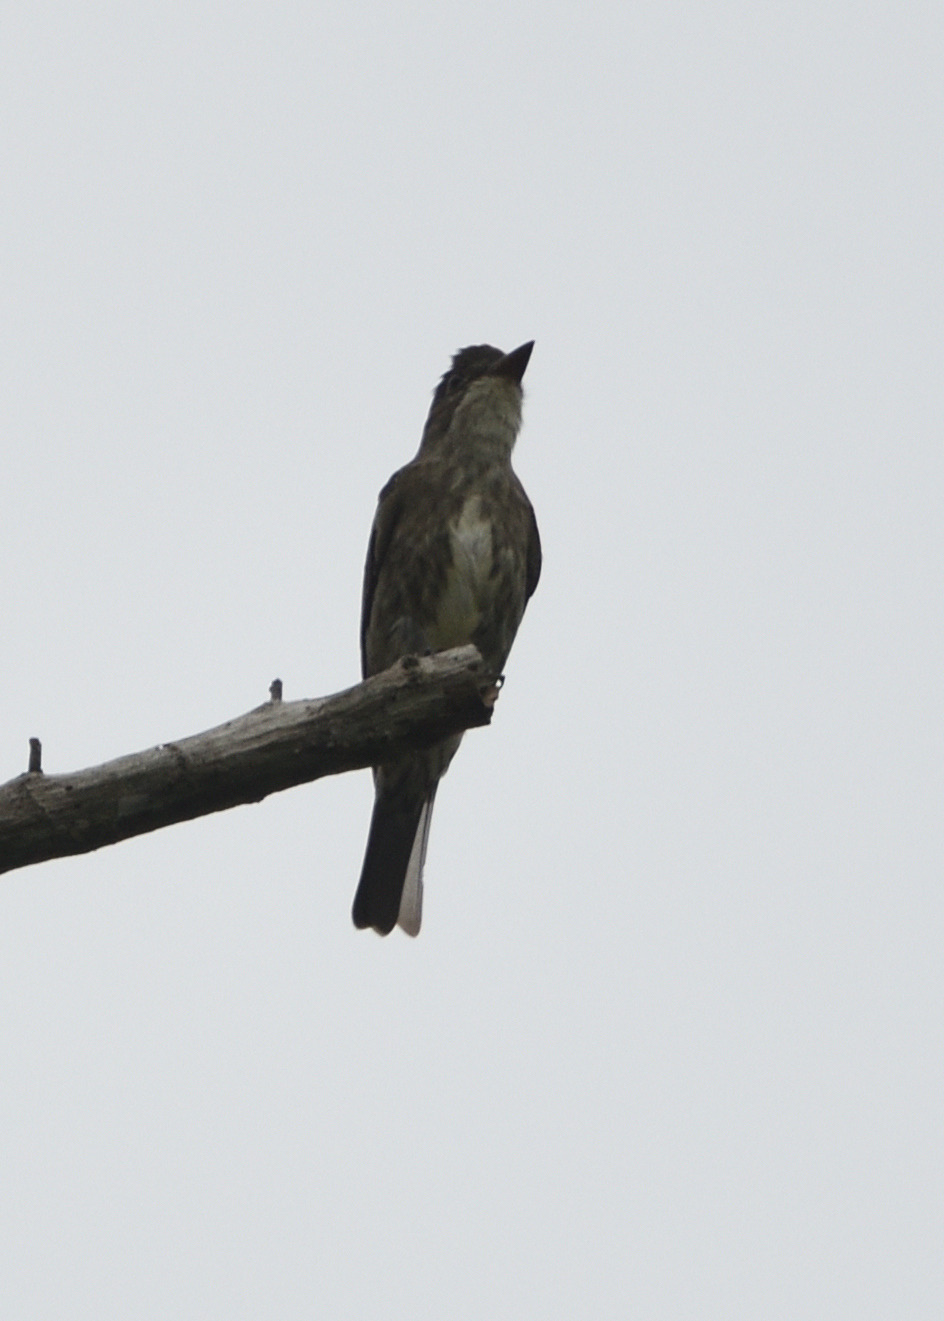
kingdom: Animalia
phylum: Chordata
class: Aves
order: Passeriformes
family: Tyrannidae
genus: Contopus
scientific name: Contopus cooperi
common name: Olive-sided flycatcher
